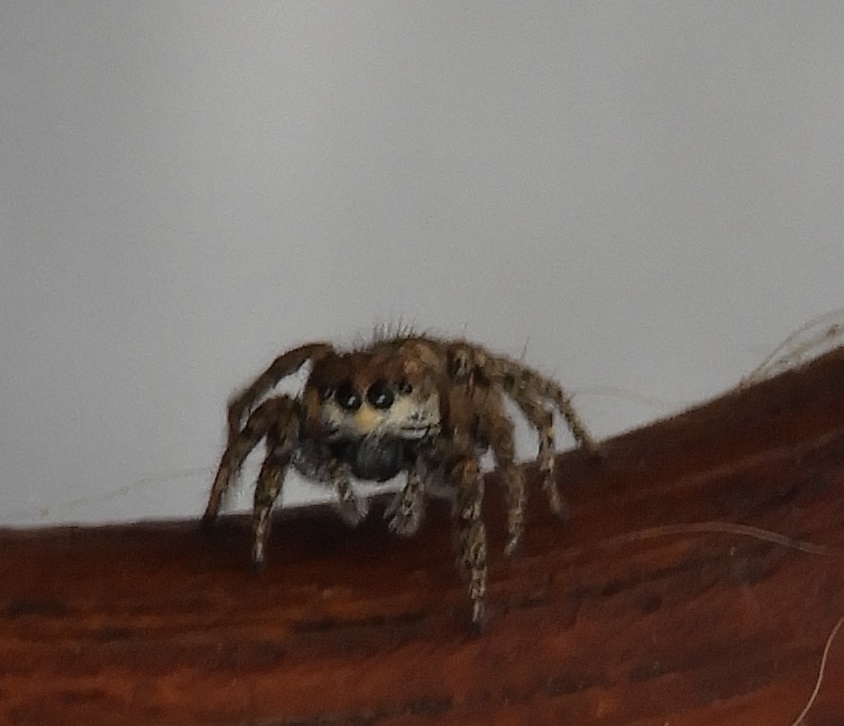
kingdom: Animalia
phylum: Arthropoda
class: Arachnida
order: Araneae
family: Salticidae
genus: Habronattus
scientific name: Habronattus
